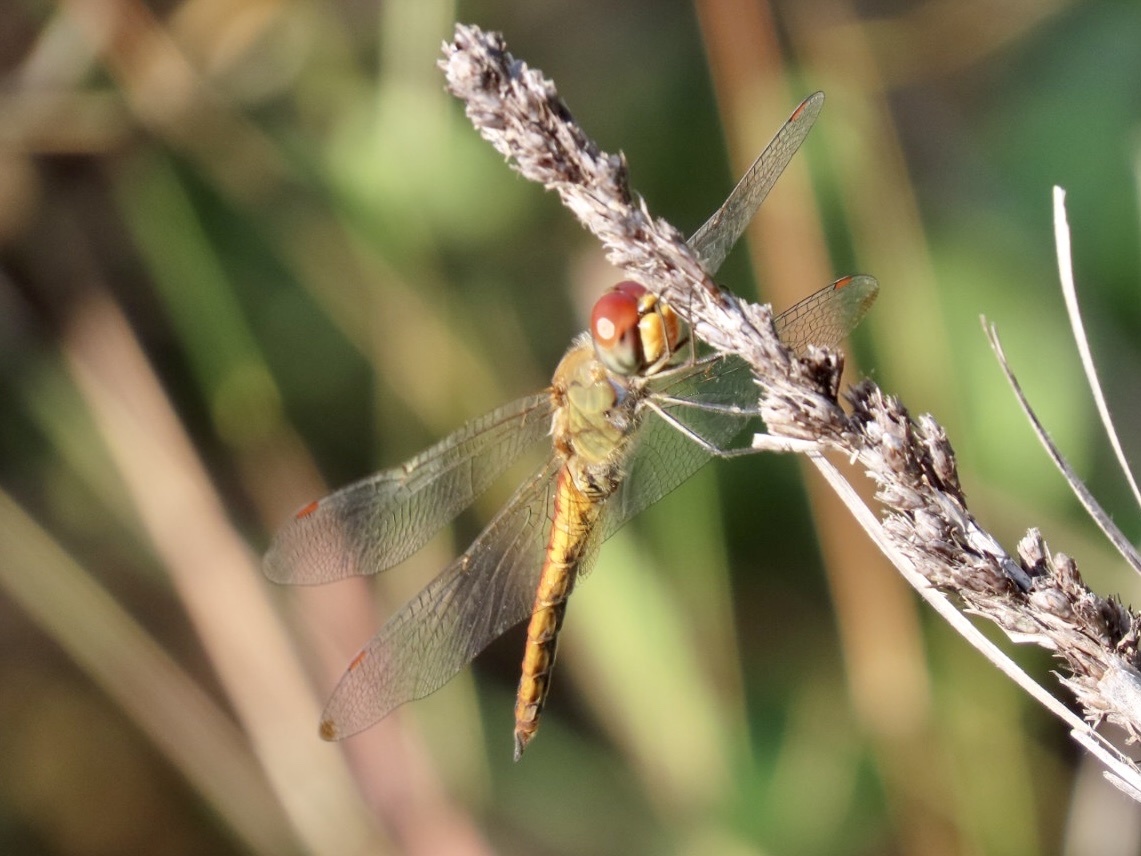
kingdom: Animalia
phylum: Arthropoda
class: Insecta
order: Odonata
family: Libellulidae
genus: Pantala
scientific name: Pantala flavescens
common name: Wandering glider
